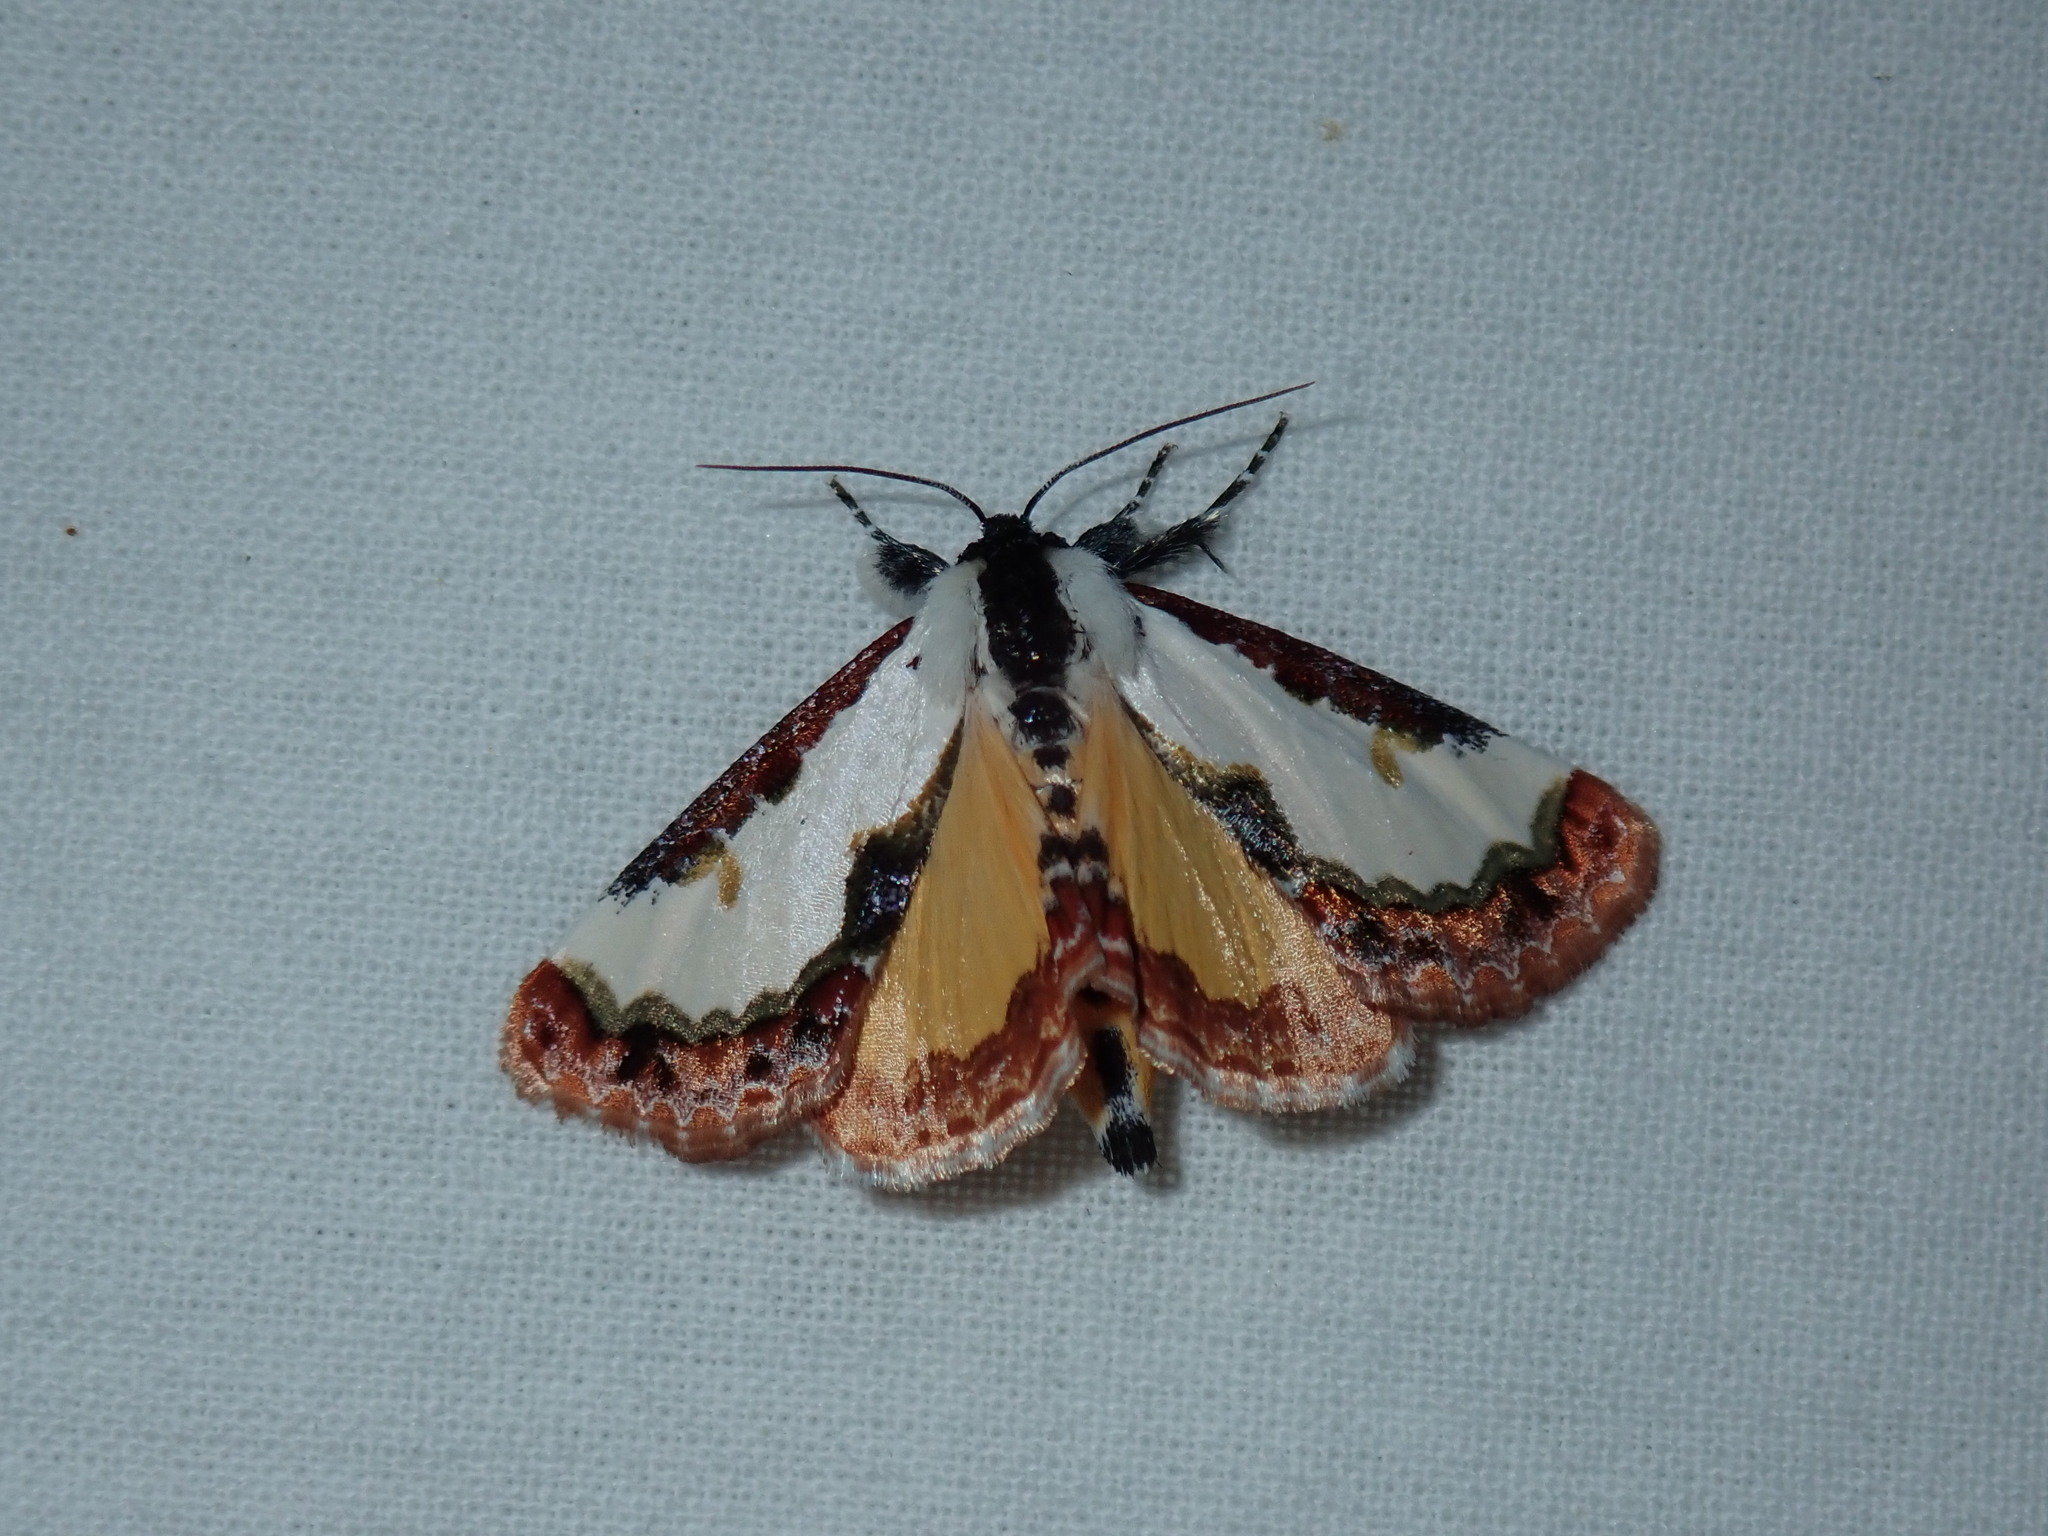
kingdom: Animalia
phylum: Arthropoda
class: Insecta
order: Lepidoptera
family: Noctuidae
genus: Eudryas
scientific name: Eudryas unio
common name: Pearly wood-nymph
